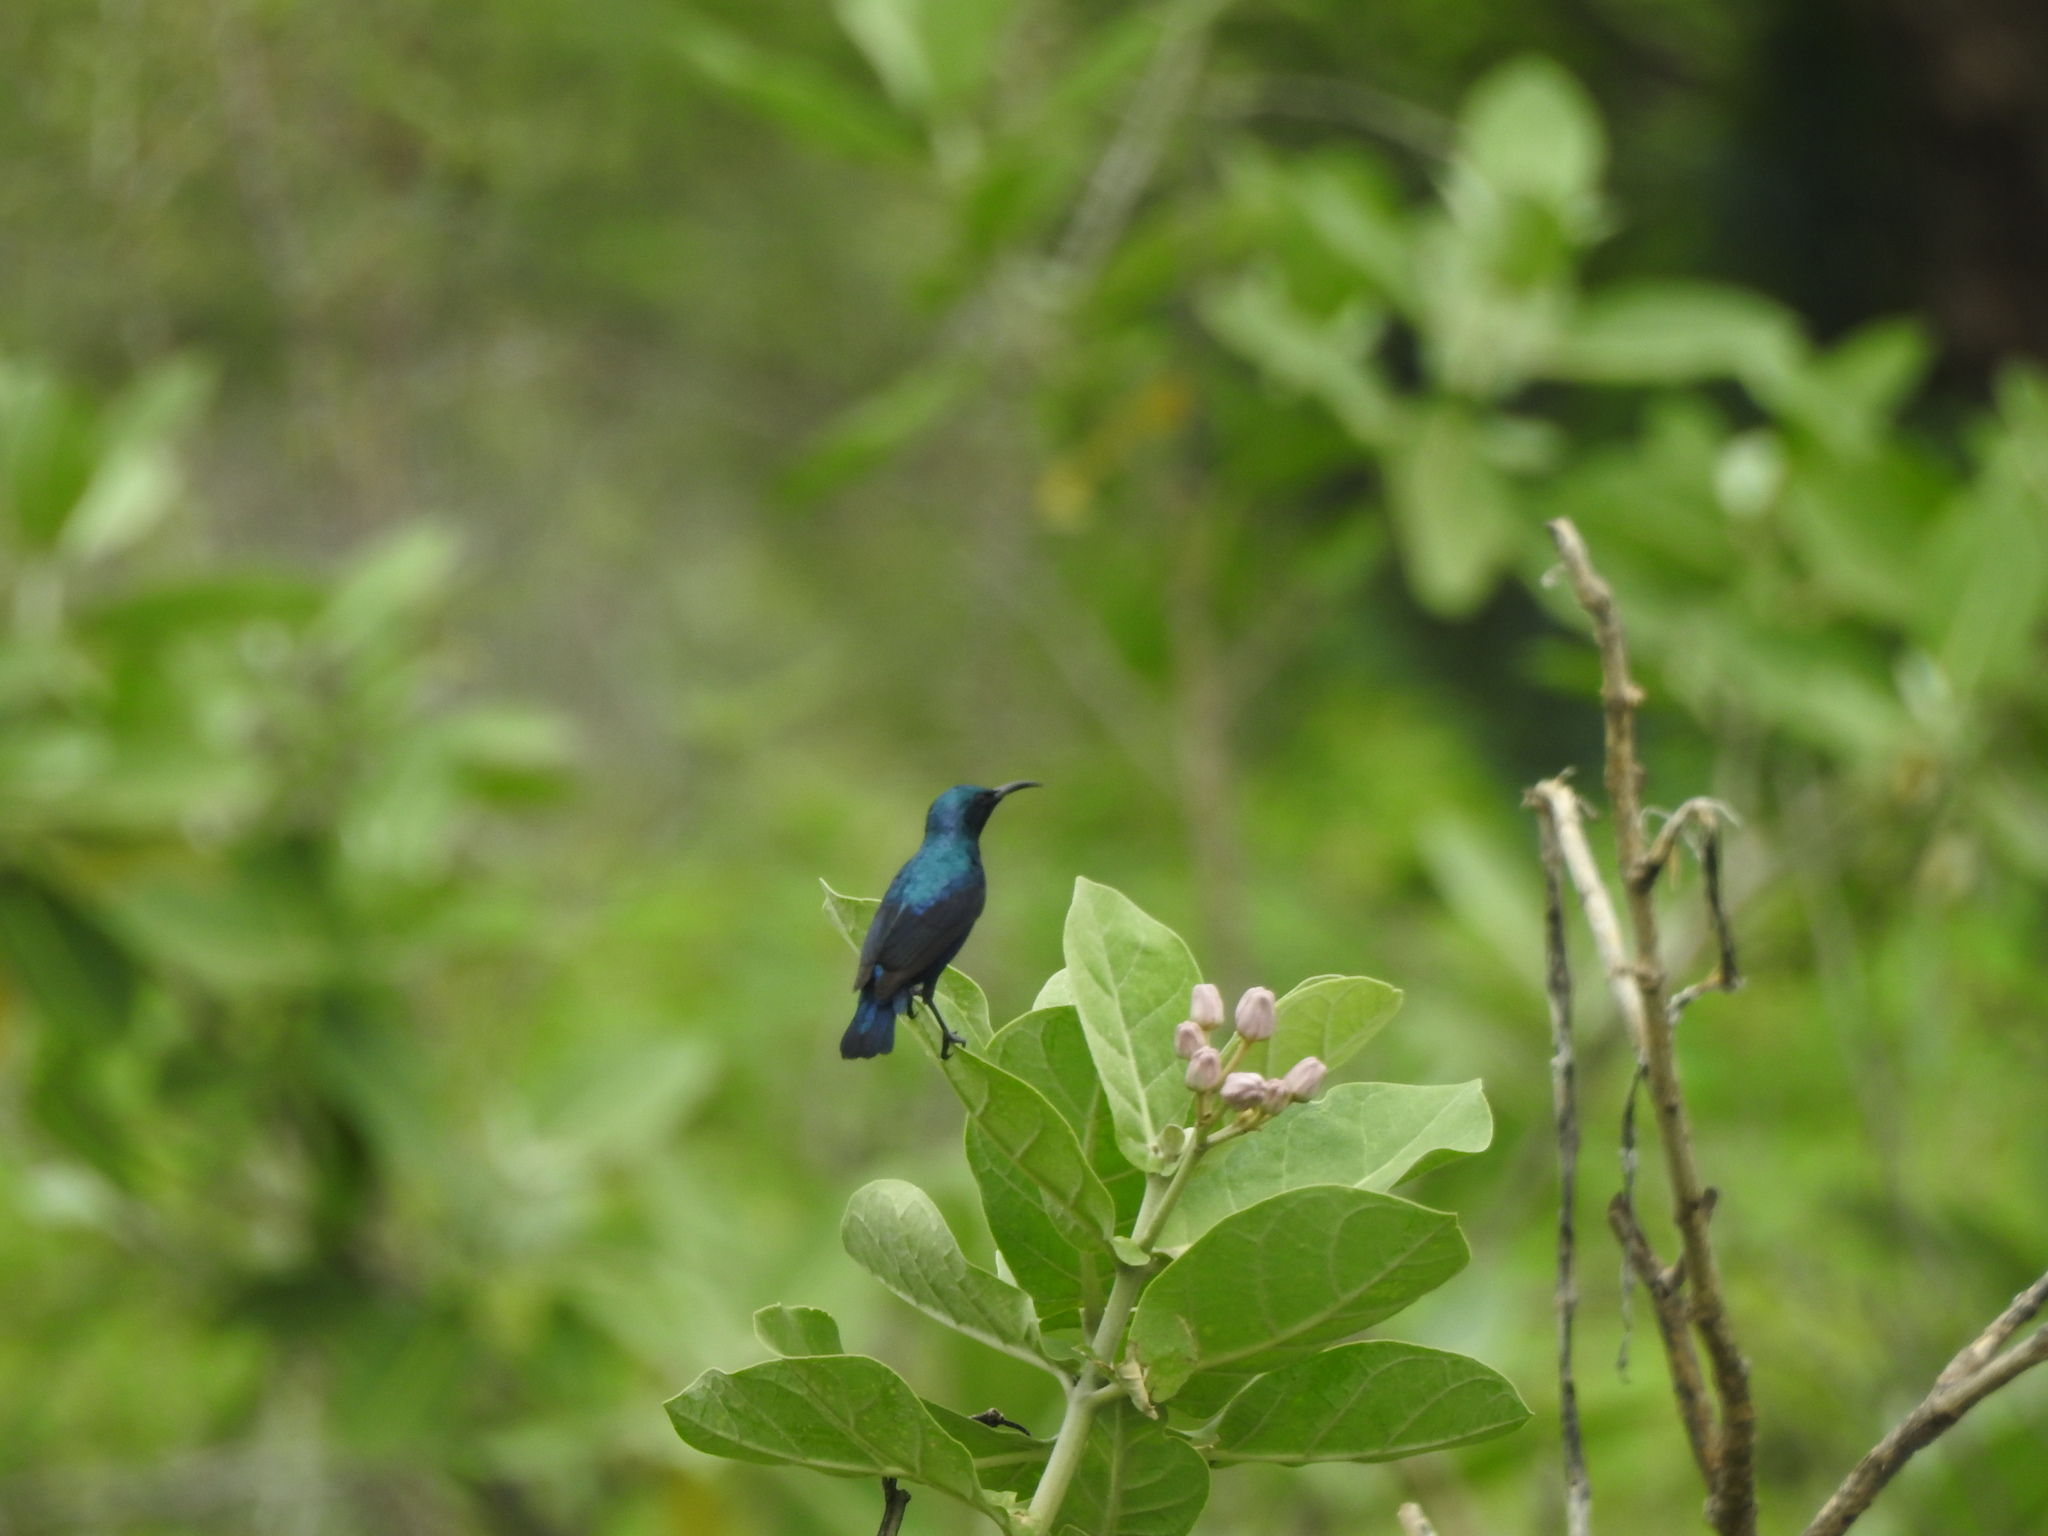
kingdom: Animalia
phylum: Chordata
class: Aves
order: Passeriformes
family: Nectariniidae
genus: Cinnyris
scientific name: Cinnyris asiaticus
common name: Purple sunbird
